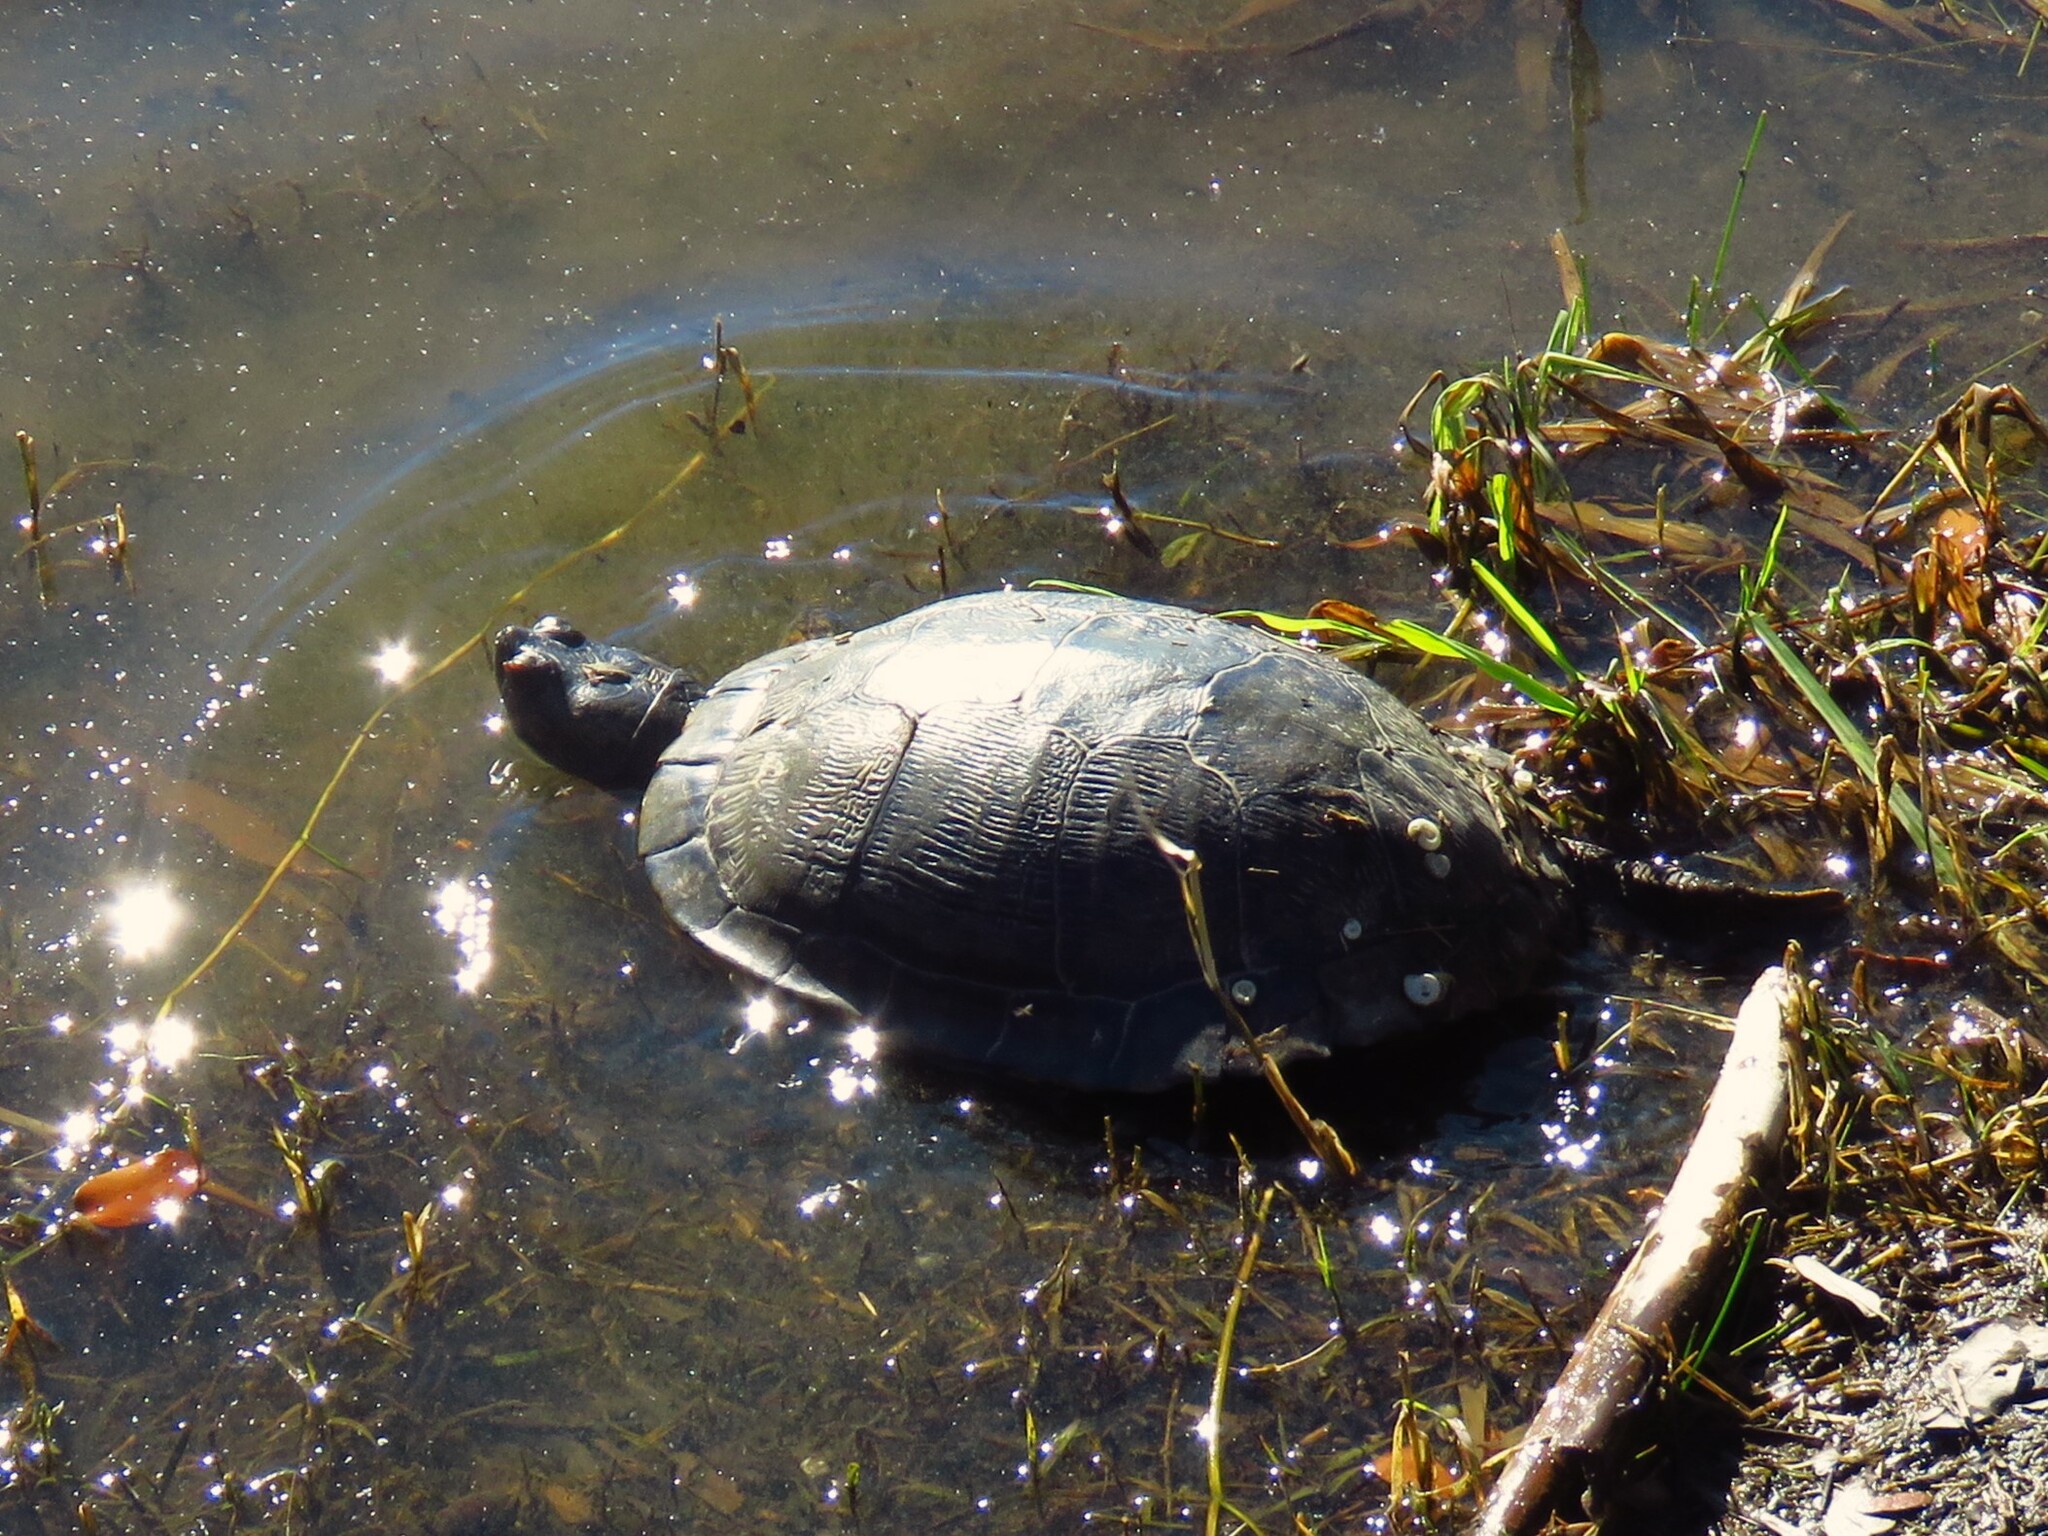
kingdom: Animalia
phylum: Chordata
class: Testudines
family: Emydidae
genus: Trachemys
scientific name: Trachemys scripta
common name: Slider
